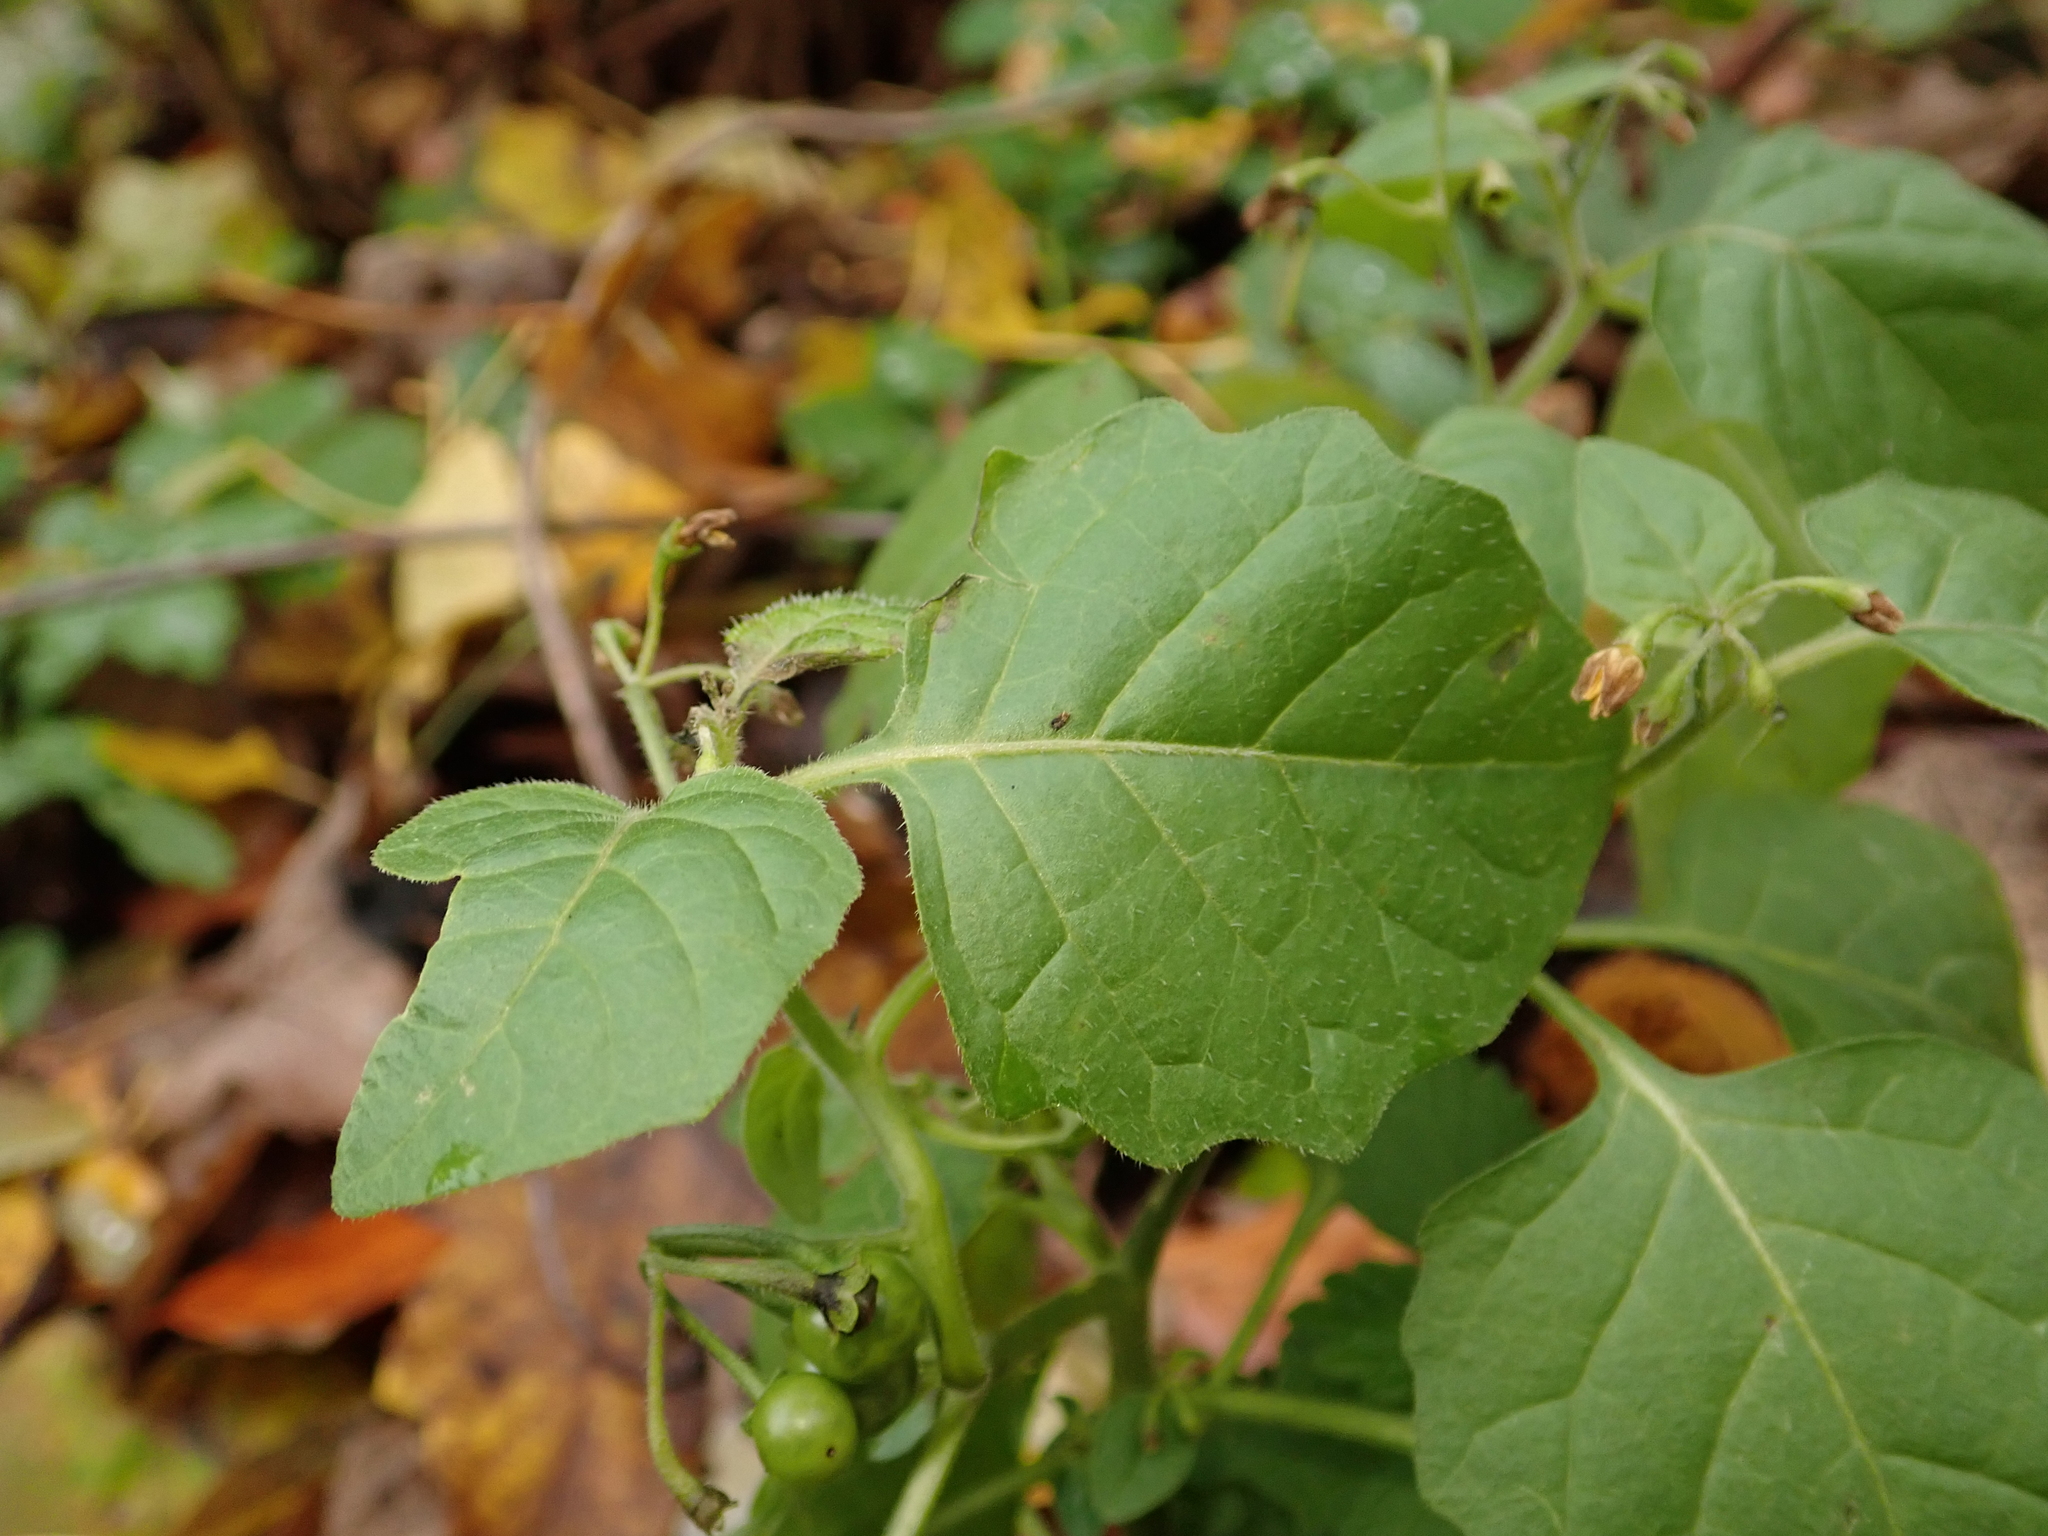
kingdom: Plantae
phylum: Tracheophyta
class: Magnoliopsida
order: Solanales
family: Solanaceae
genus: Solanum
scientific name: Solanum nigrum
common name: Black nightshade
